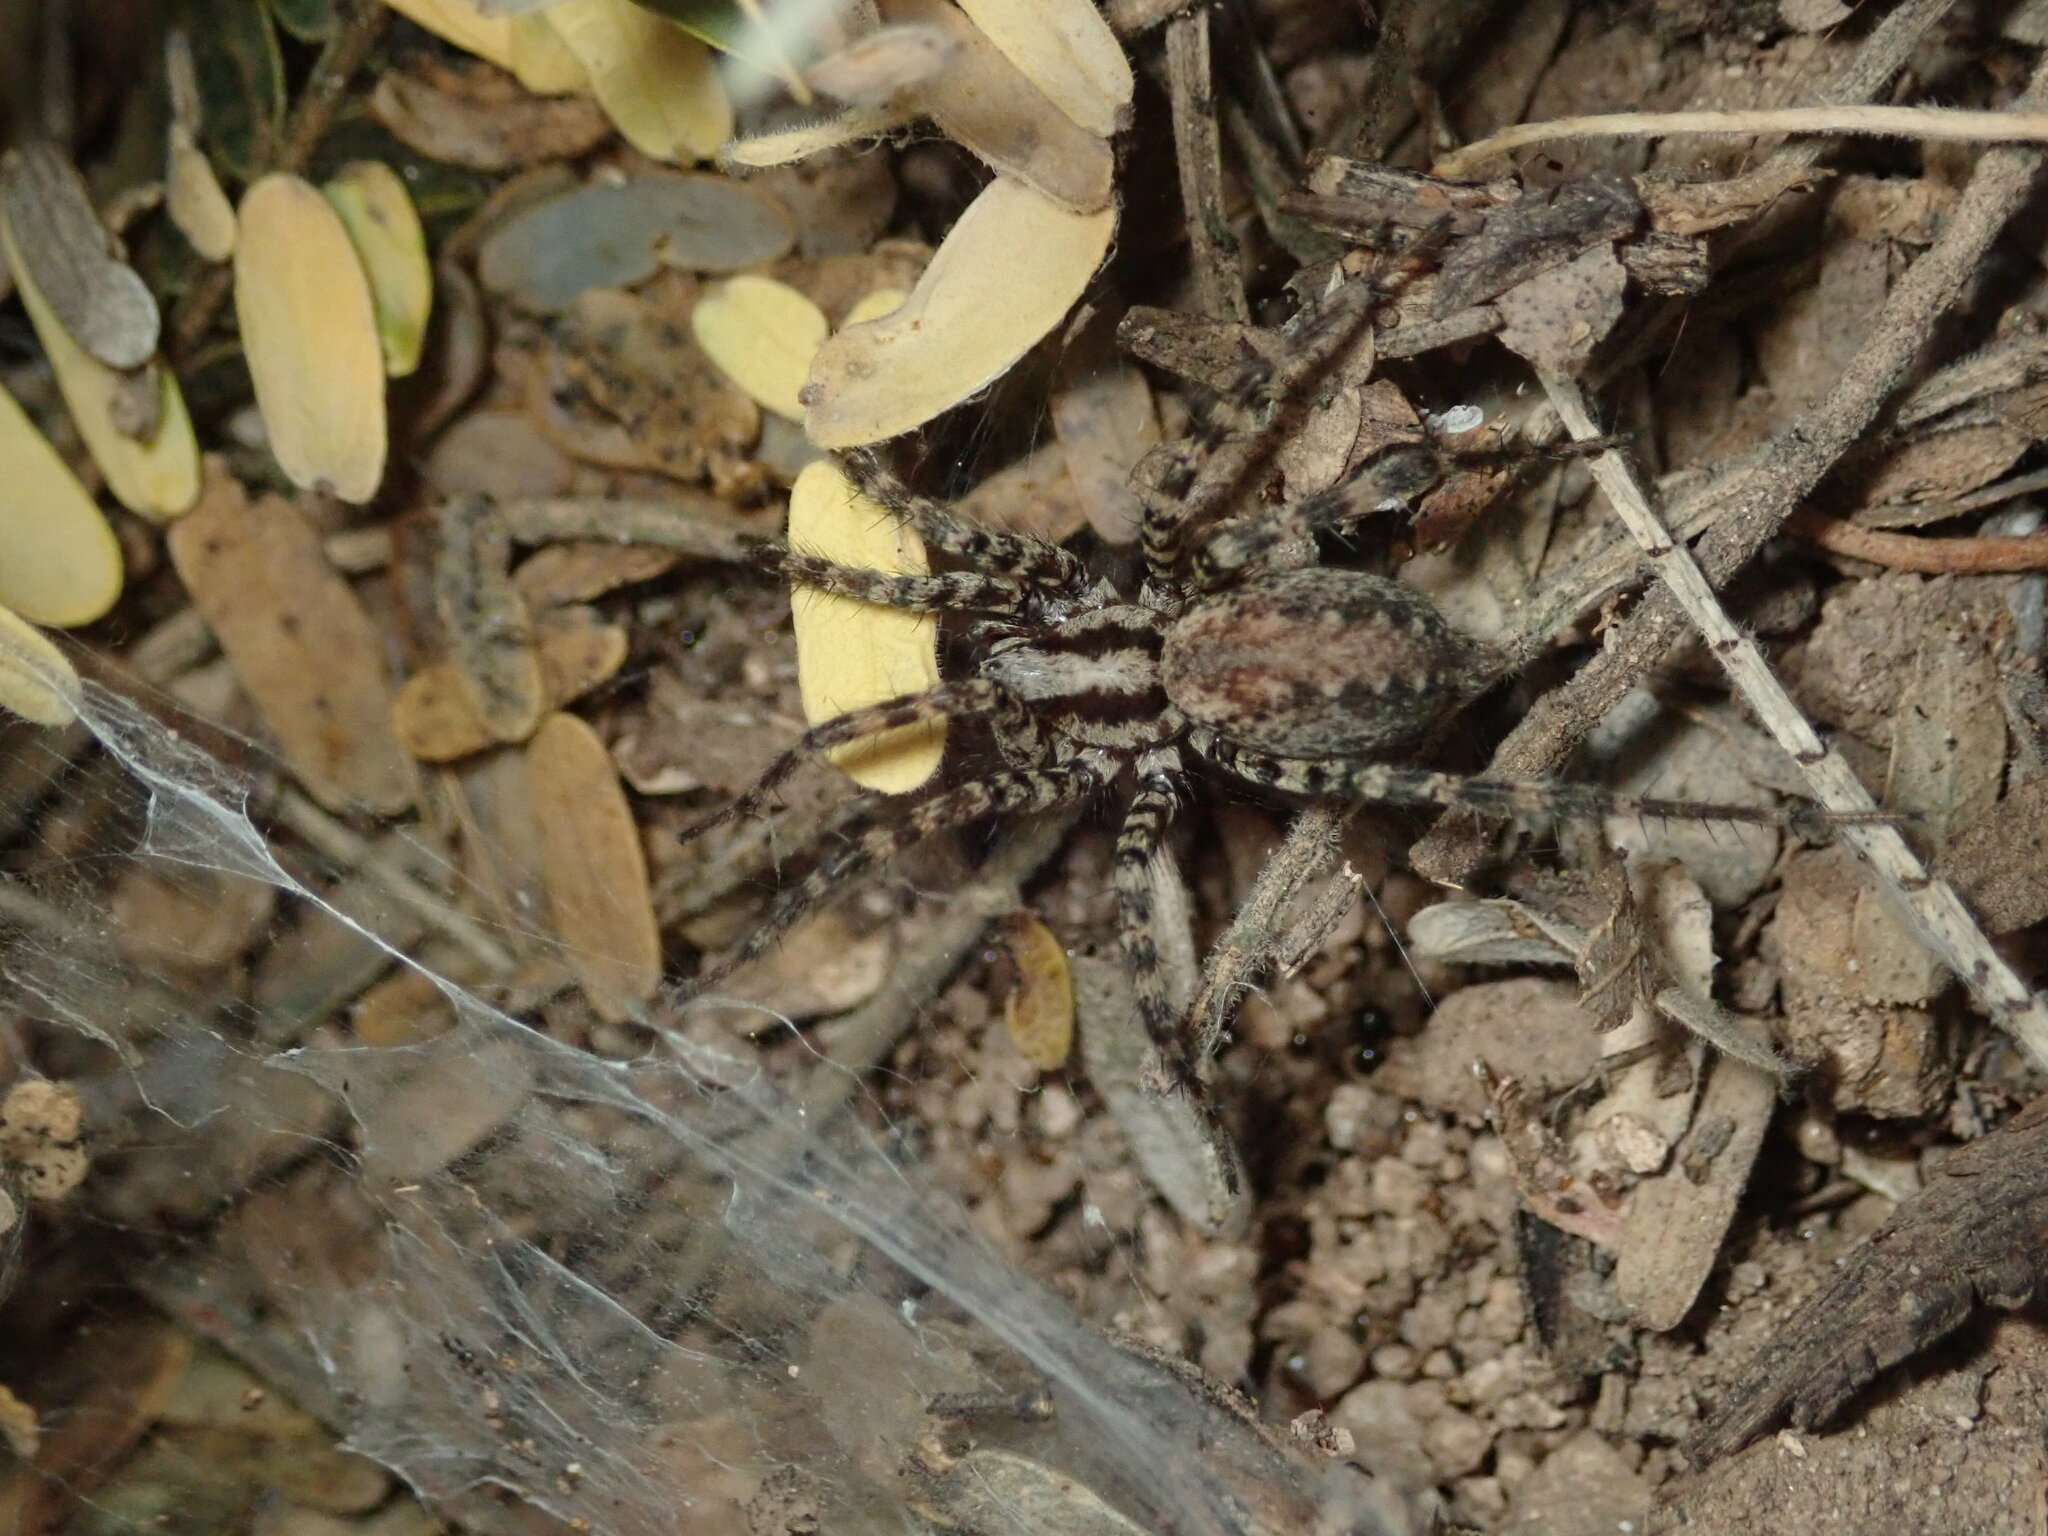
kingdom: Animalia
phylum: Arthropoda
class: Arachnida
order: Araneae
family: Agelenidae
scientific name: Agelenidae
